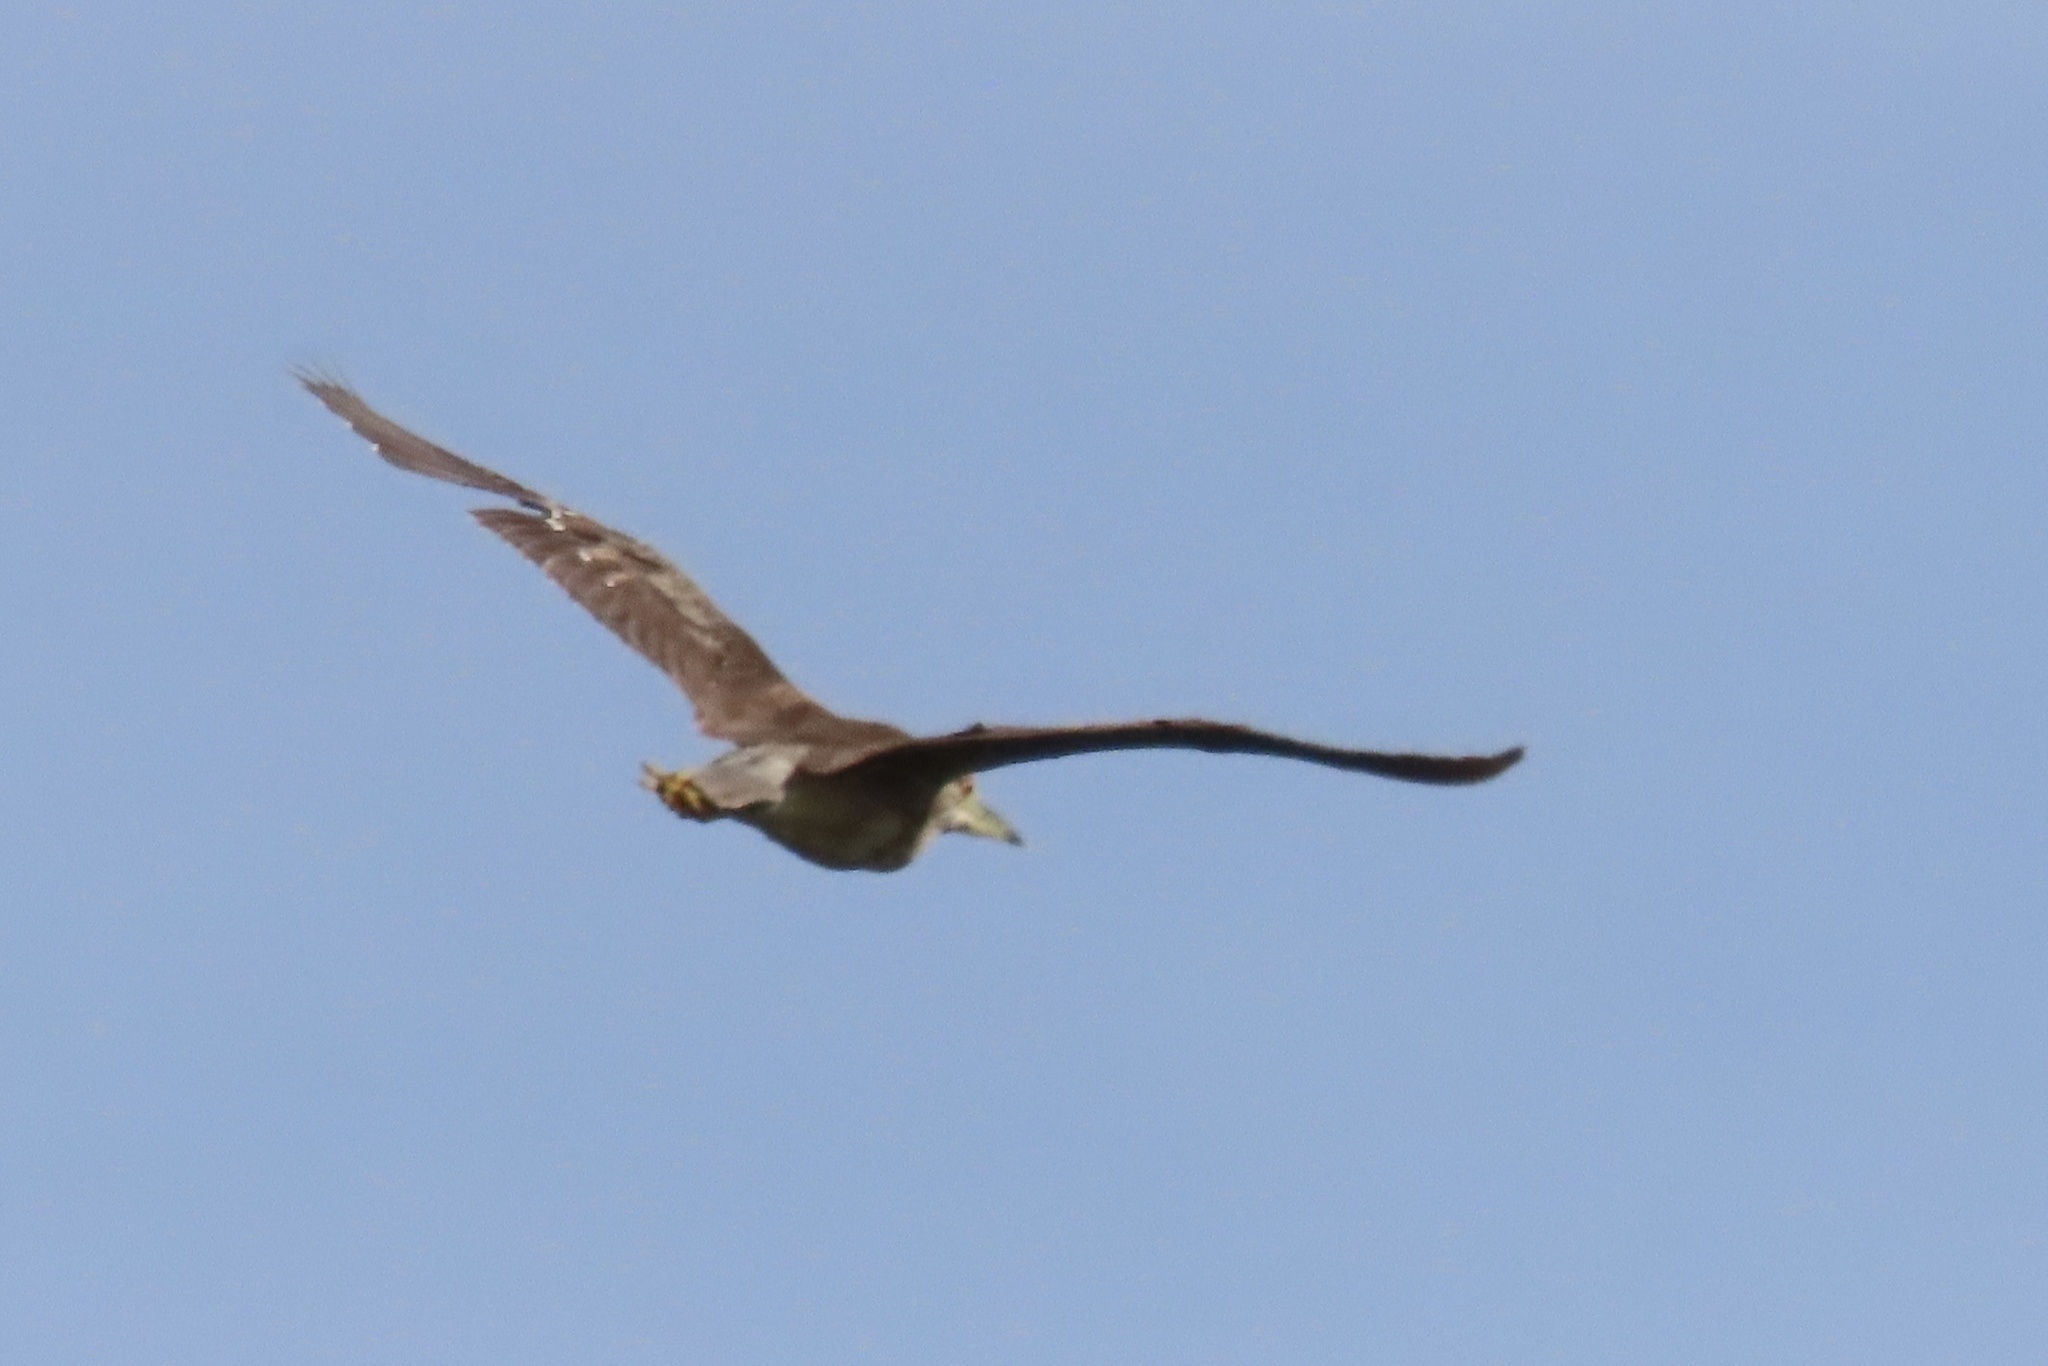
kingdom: Animalia
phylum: Chordata
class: Aves
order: Pelecaniformes
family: Ardeidae
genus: Nycticorax
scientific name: Nycticorax nycticorax
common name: Black-crowned night heron
